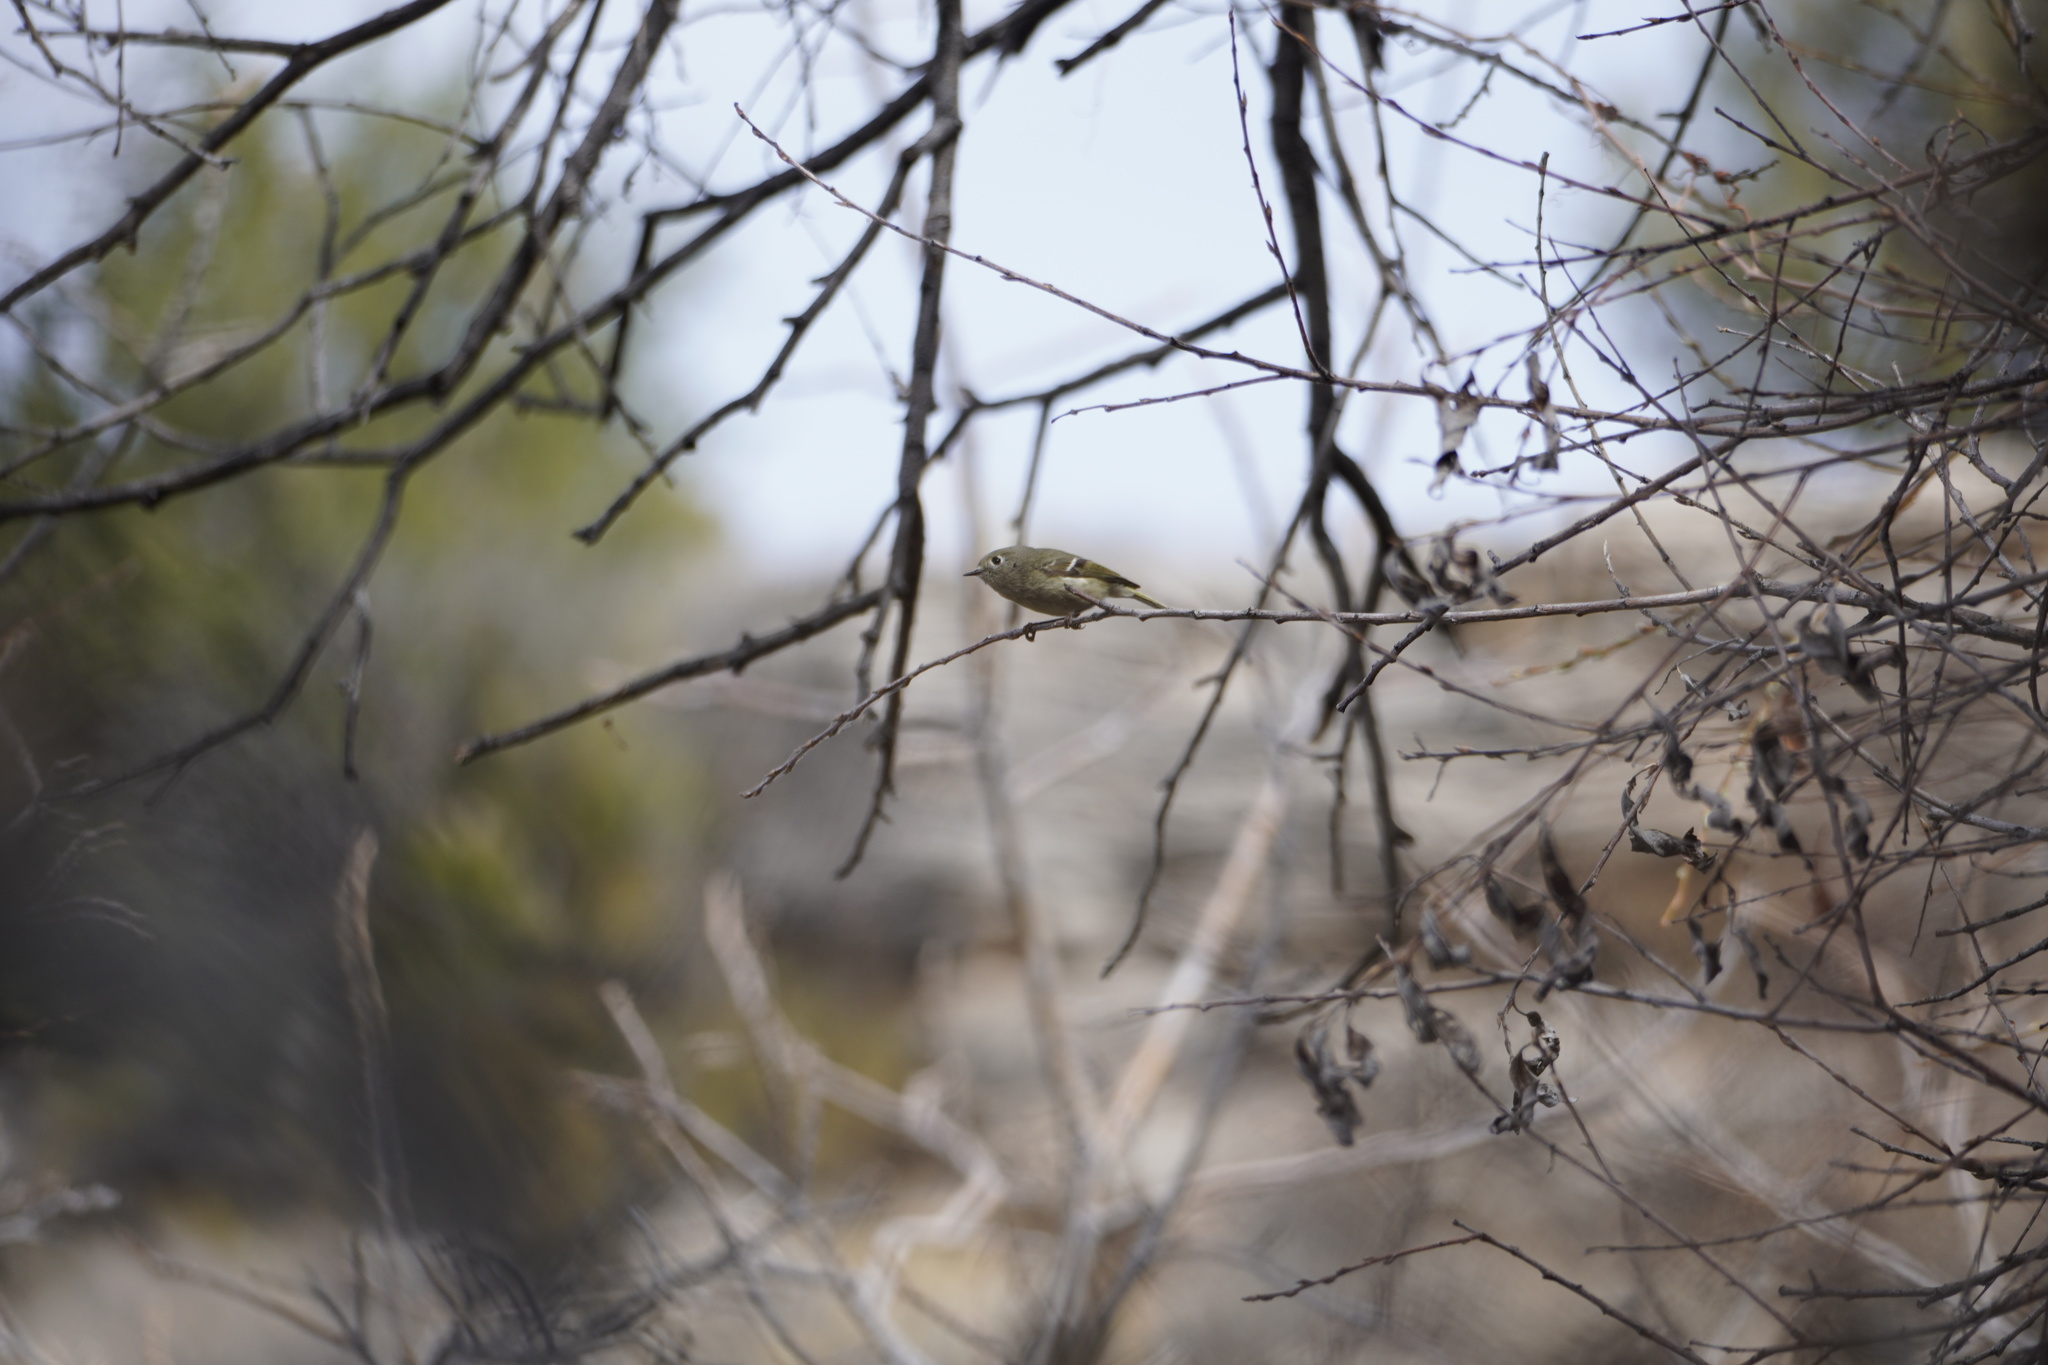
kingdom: Animalia
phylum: Chordata
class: Aves
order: Passeriformes
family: Regulidae
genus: Regulus
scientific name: Regulus calendula
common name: Ruby-crowned kinglet
